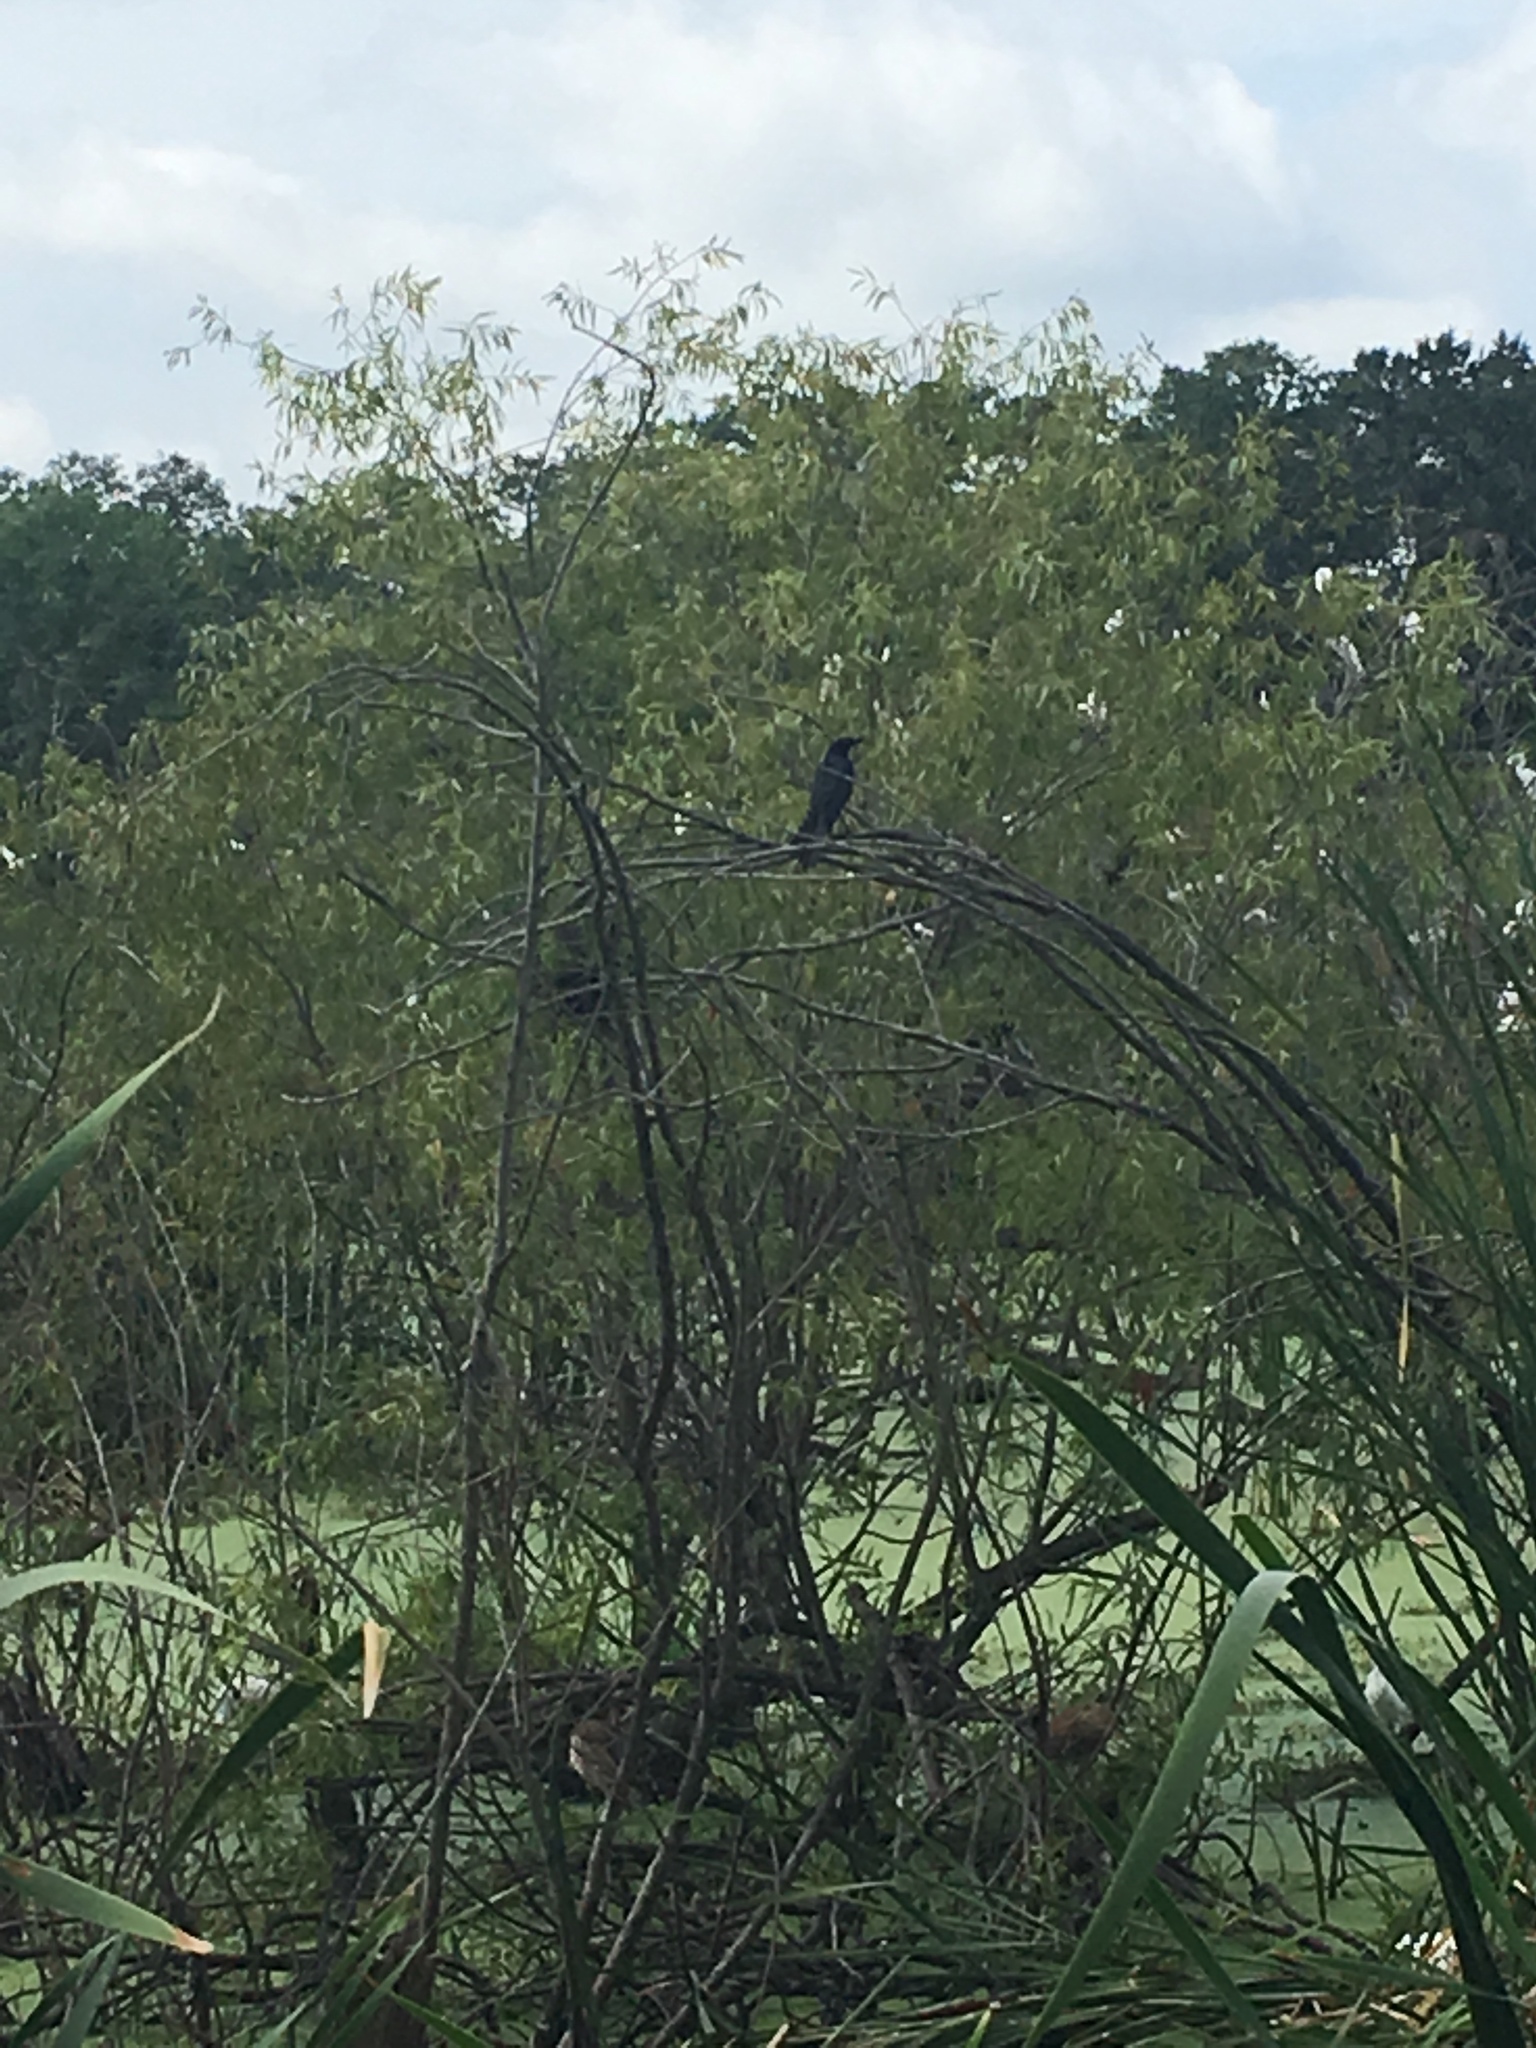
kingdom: Animalia
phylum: Chordata
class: Aves
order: Passeriformes
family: Icteridae
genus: Quiscalus
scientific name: Quiscalus major
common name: Boat-tailed grackle
